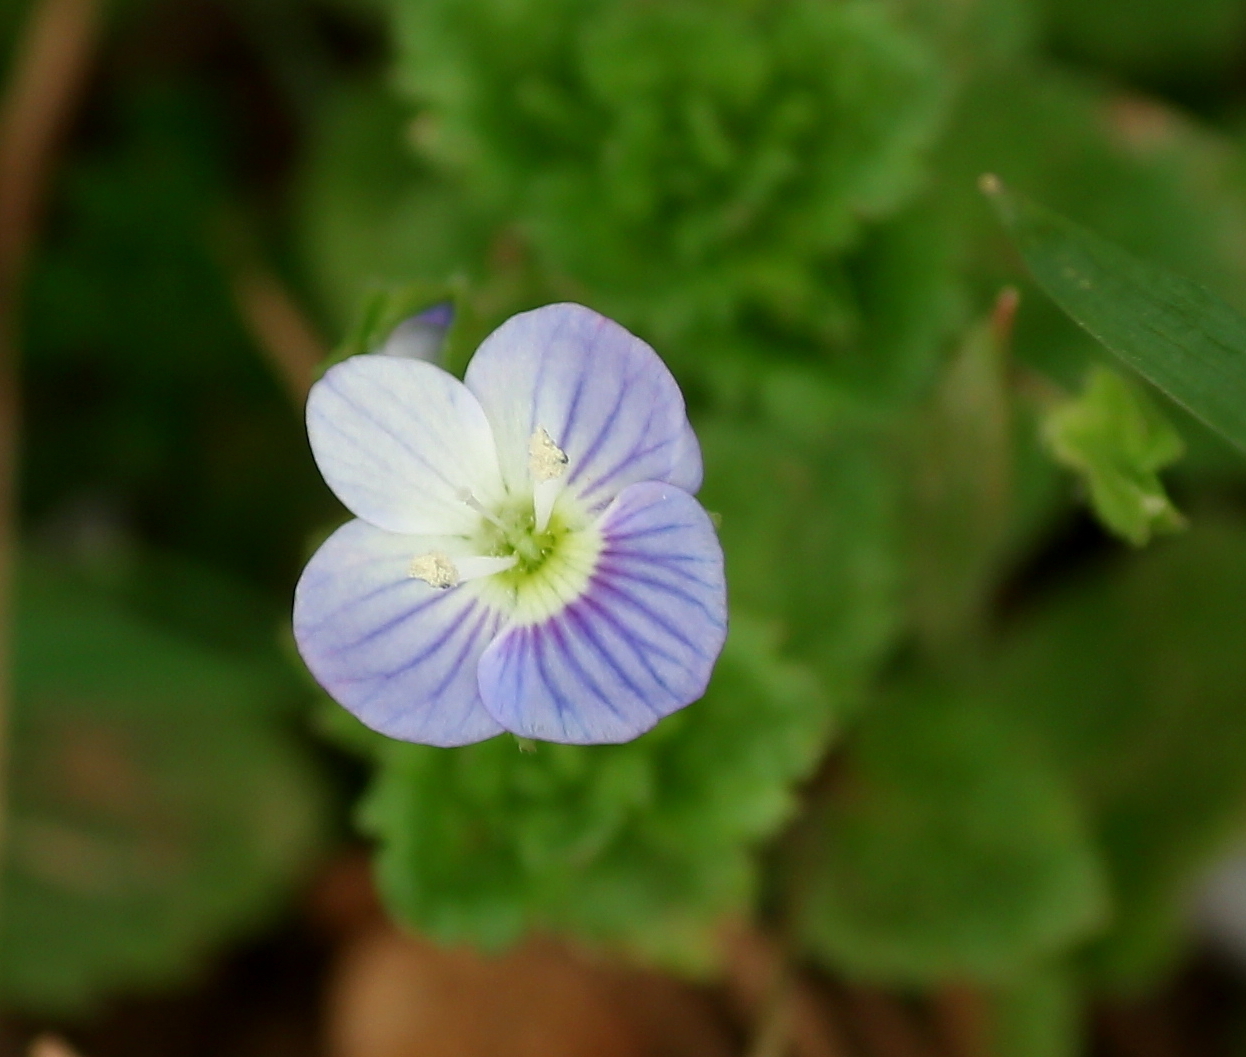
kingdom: Plantae
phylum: Tracheophyta
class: Magnoliopsida
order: Lamiales
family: Plantaginaceae
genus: Veronica
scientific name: Veronica persica
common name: Common field-speedwell
